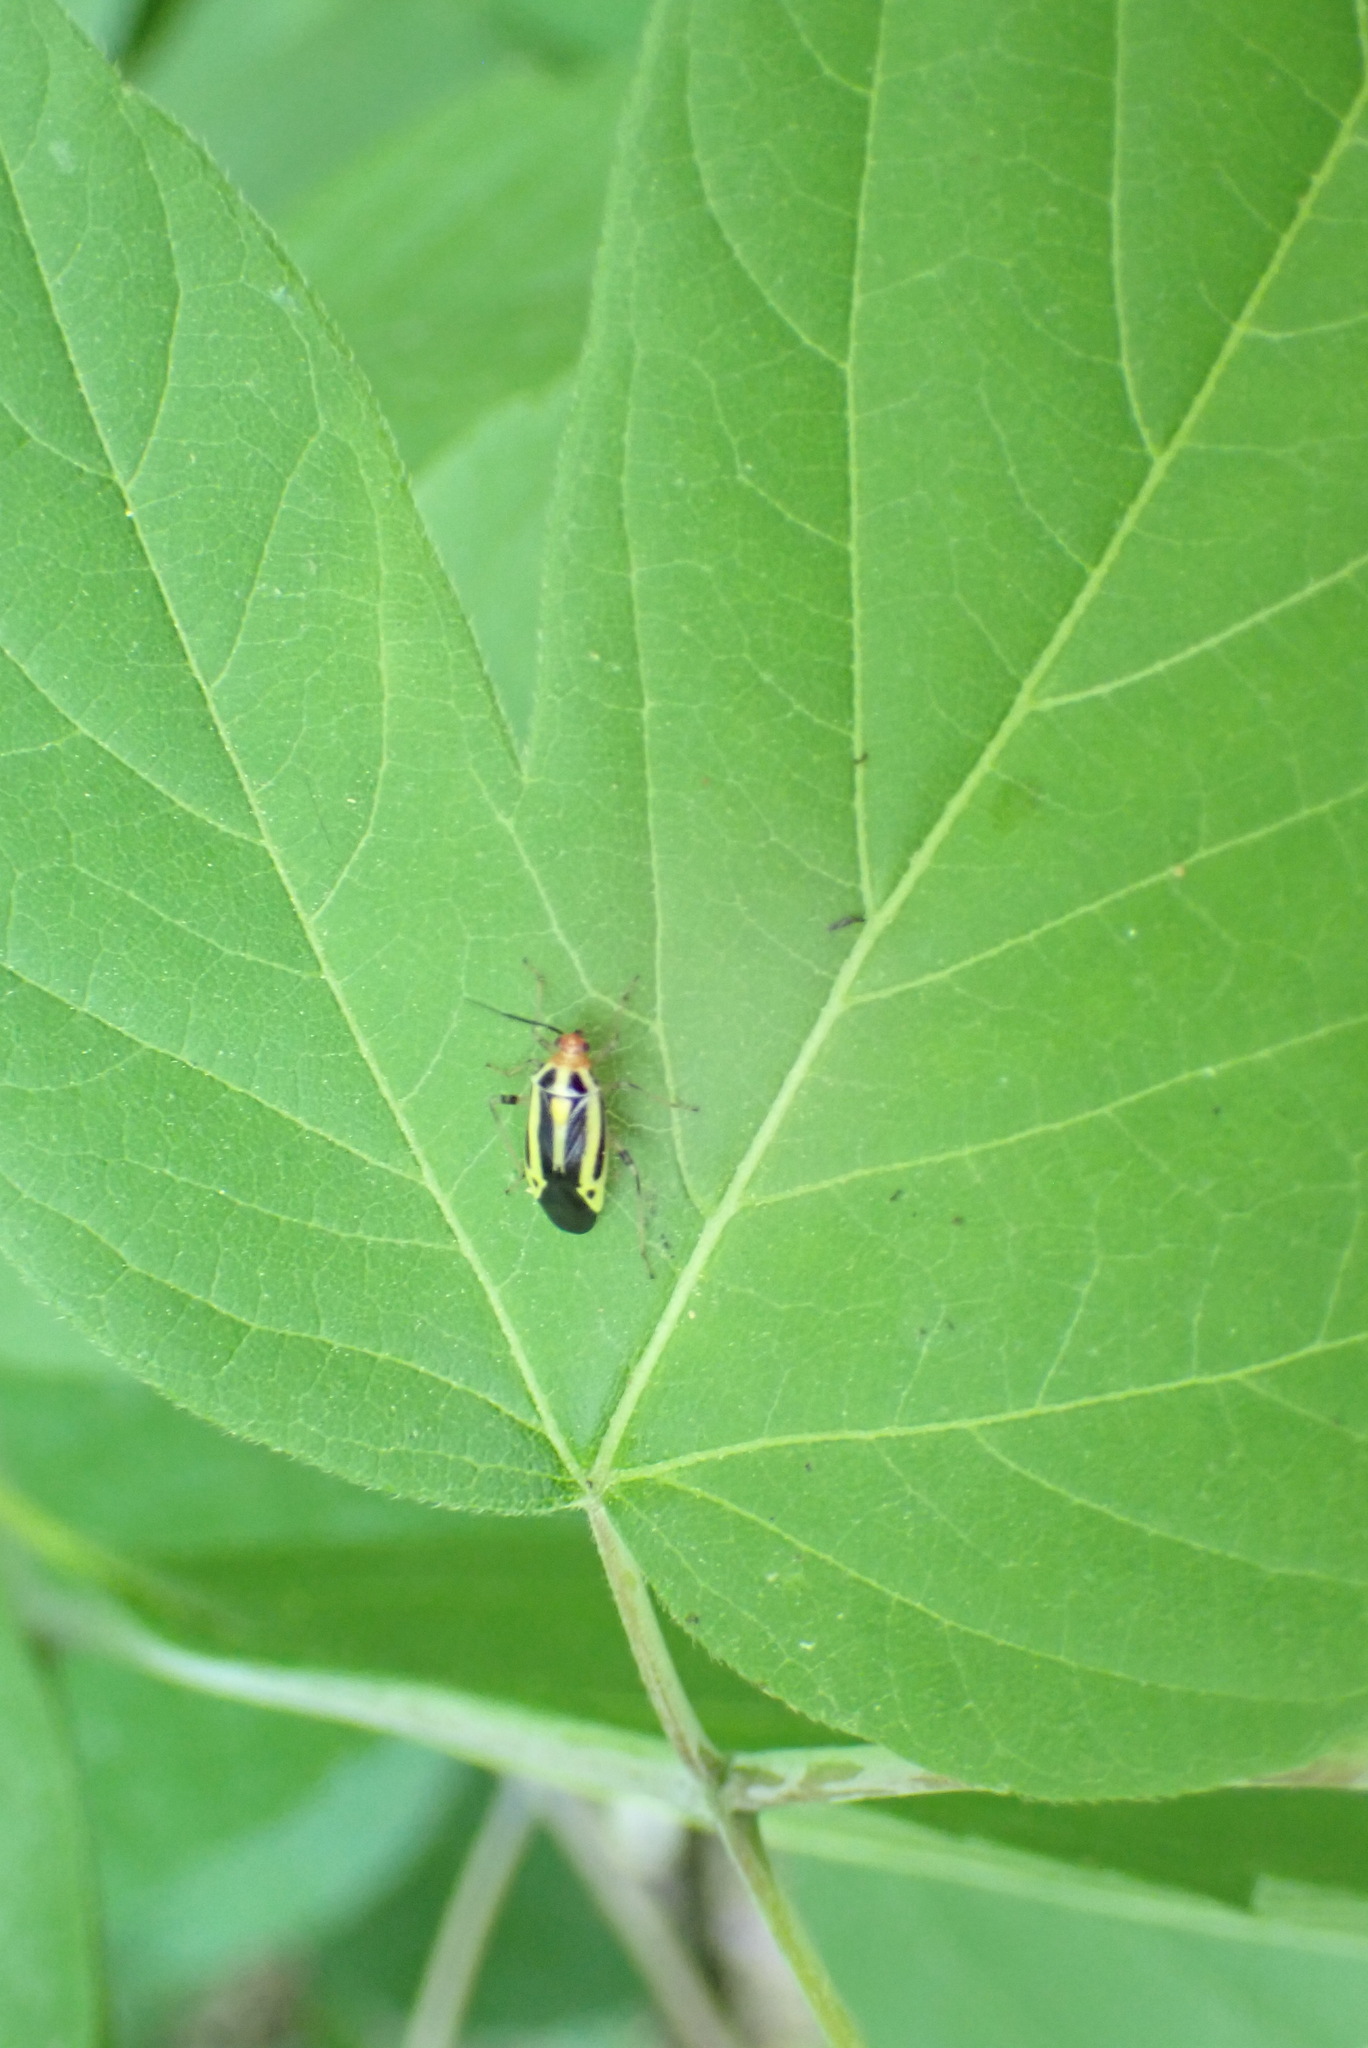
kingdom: Animalia
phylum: Arthropoda
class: Insecta
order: Hemiptera
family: Miridae
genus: Poecilocapsus
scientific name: Poecilocapsus lineatus
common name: Four-lined plant bug
